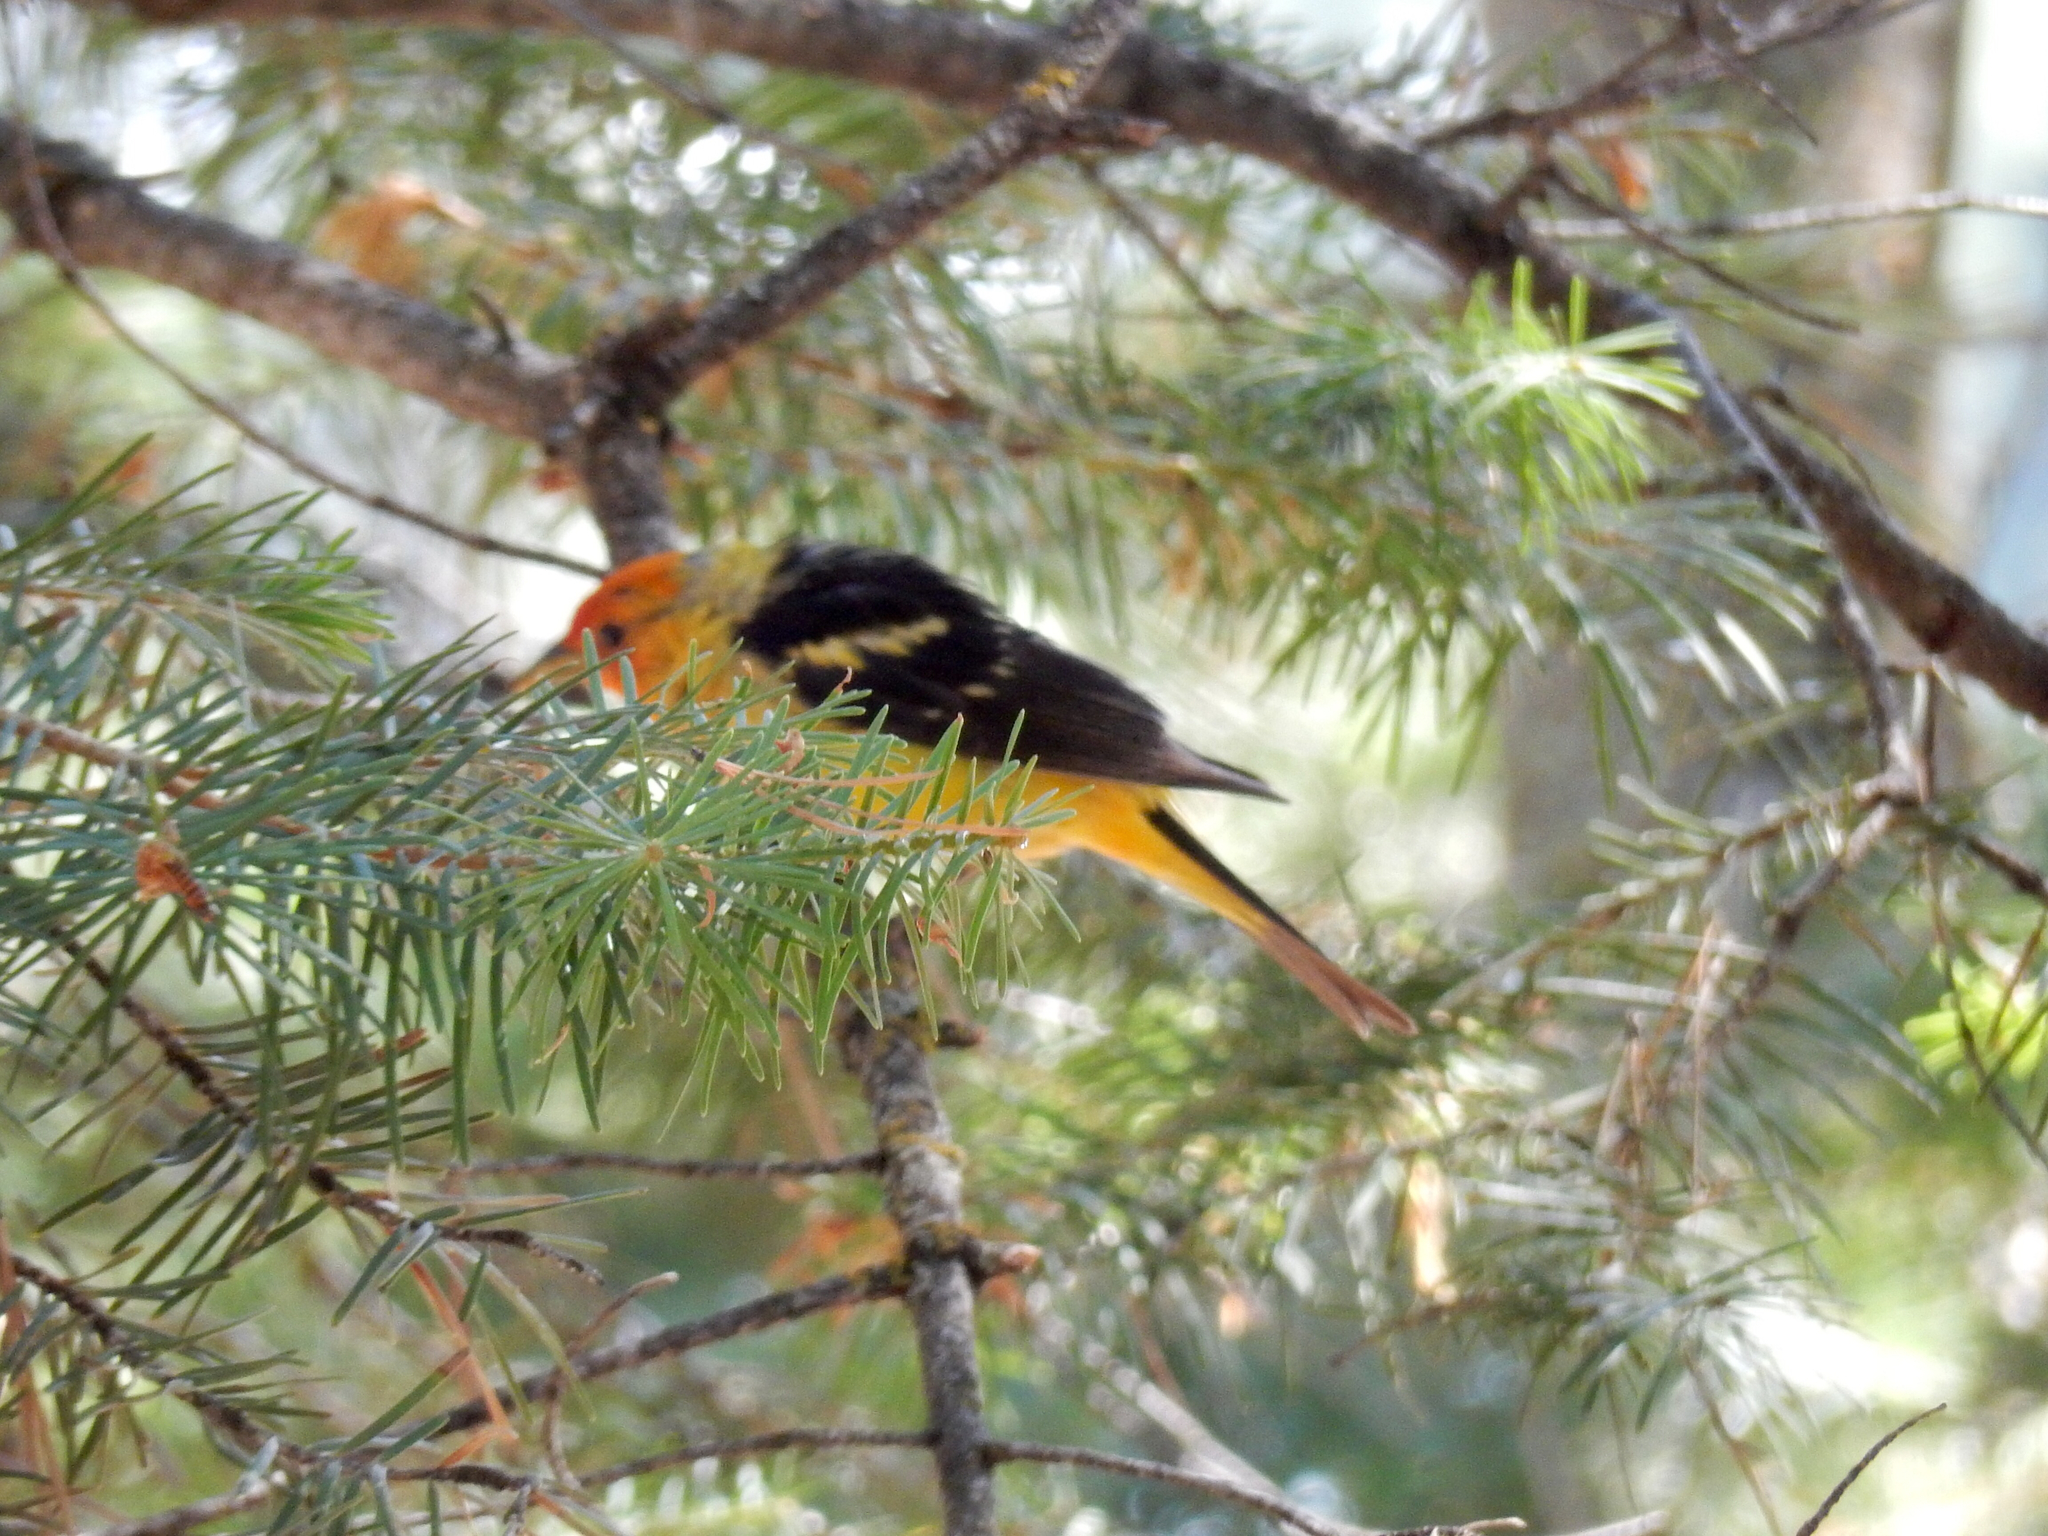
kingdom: Animalia
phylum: Chordata
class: Aves
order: Passeriformes
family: Cardinalidae
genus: Piranga
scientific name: Piranga ludoviciana
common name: Western tanager
